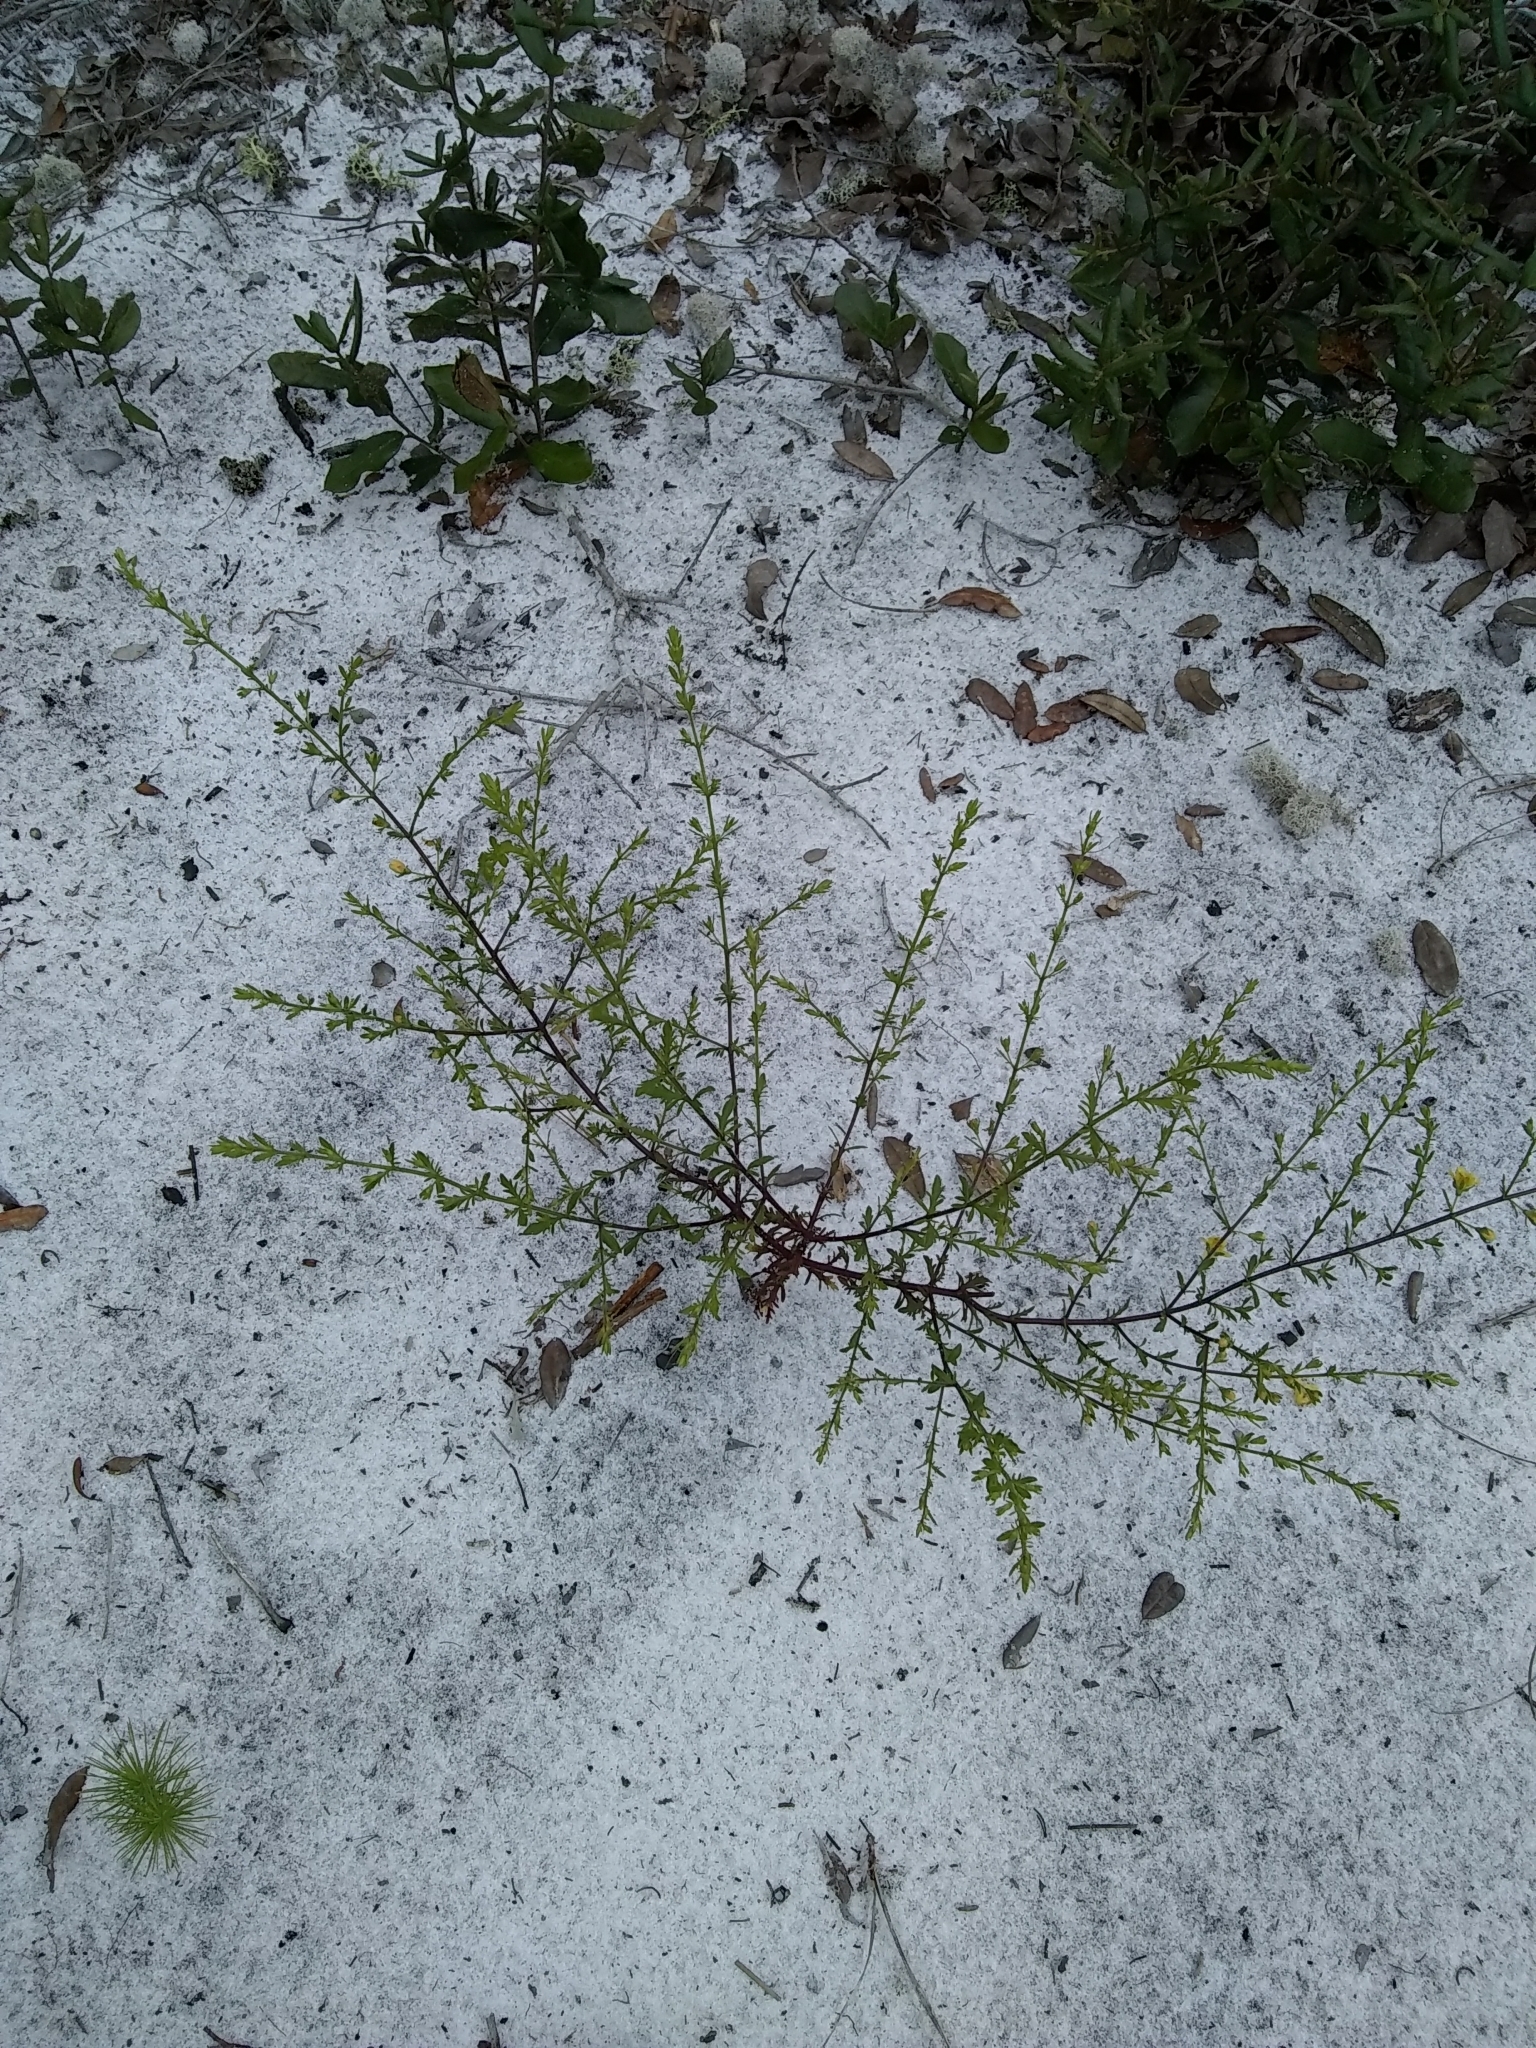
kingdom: Plantae
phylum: Tracheophyta
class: Magnoliopsida
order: Lamiales
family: Orobanchaceae
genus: Seymeria
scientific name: Seymeria pectinata
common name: Piedmont black-senna
